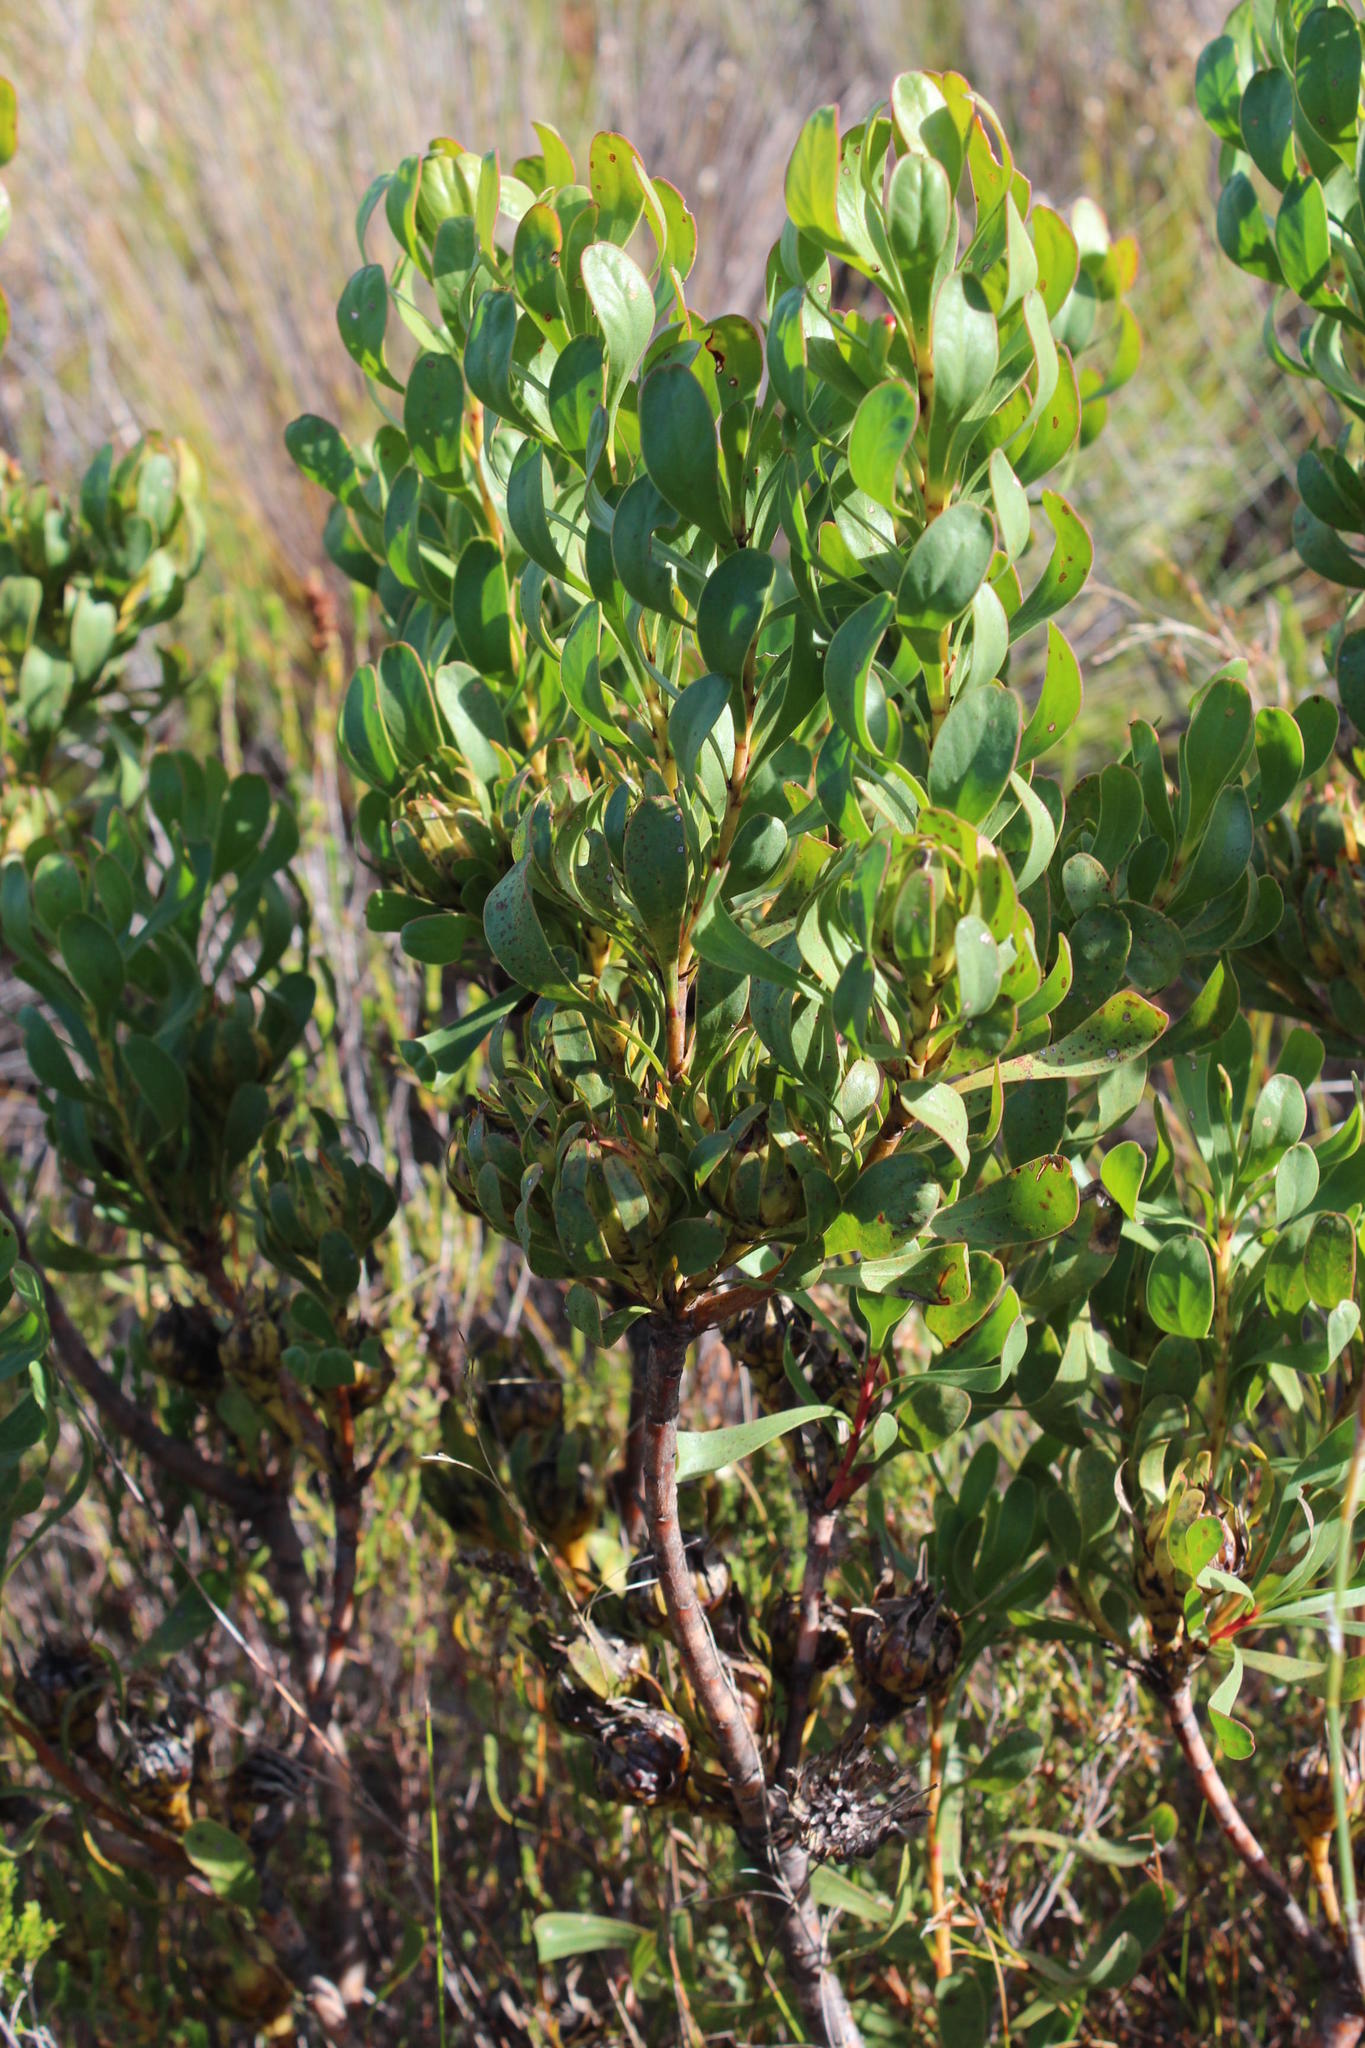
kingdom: Plantae
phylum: Tracheophyta
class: Magnoliopsida
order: Proteales
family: Proteaceae
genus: Aulax
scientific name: Aulax umbellata
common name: Broad-leaf featherbush
